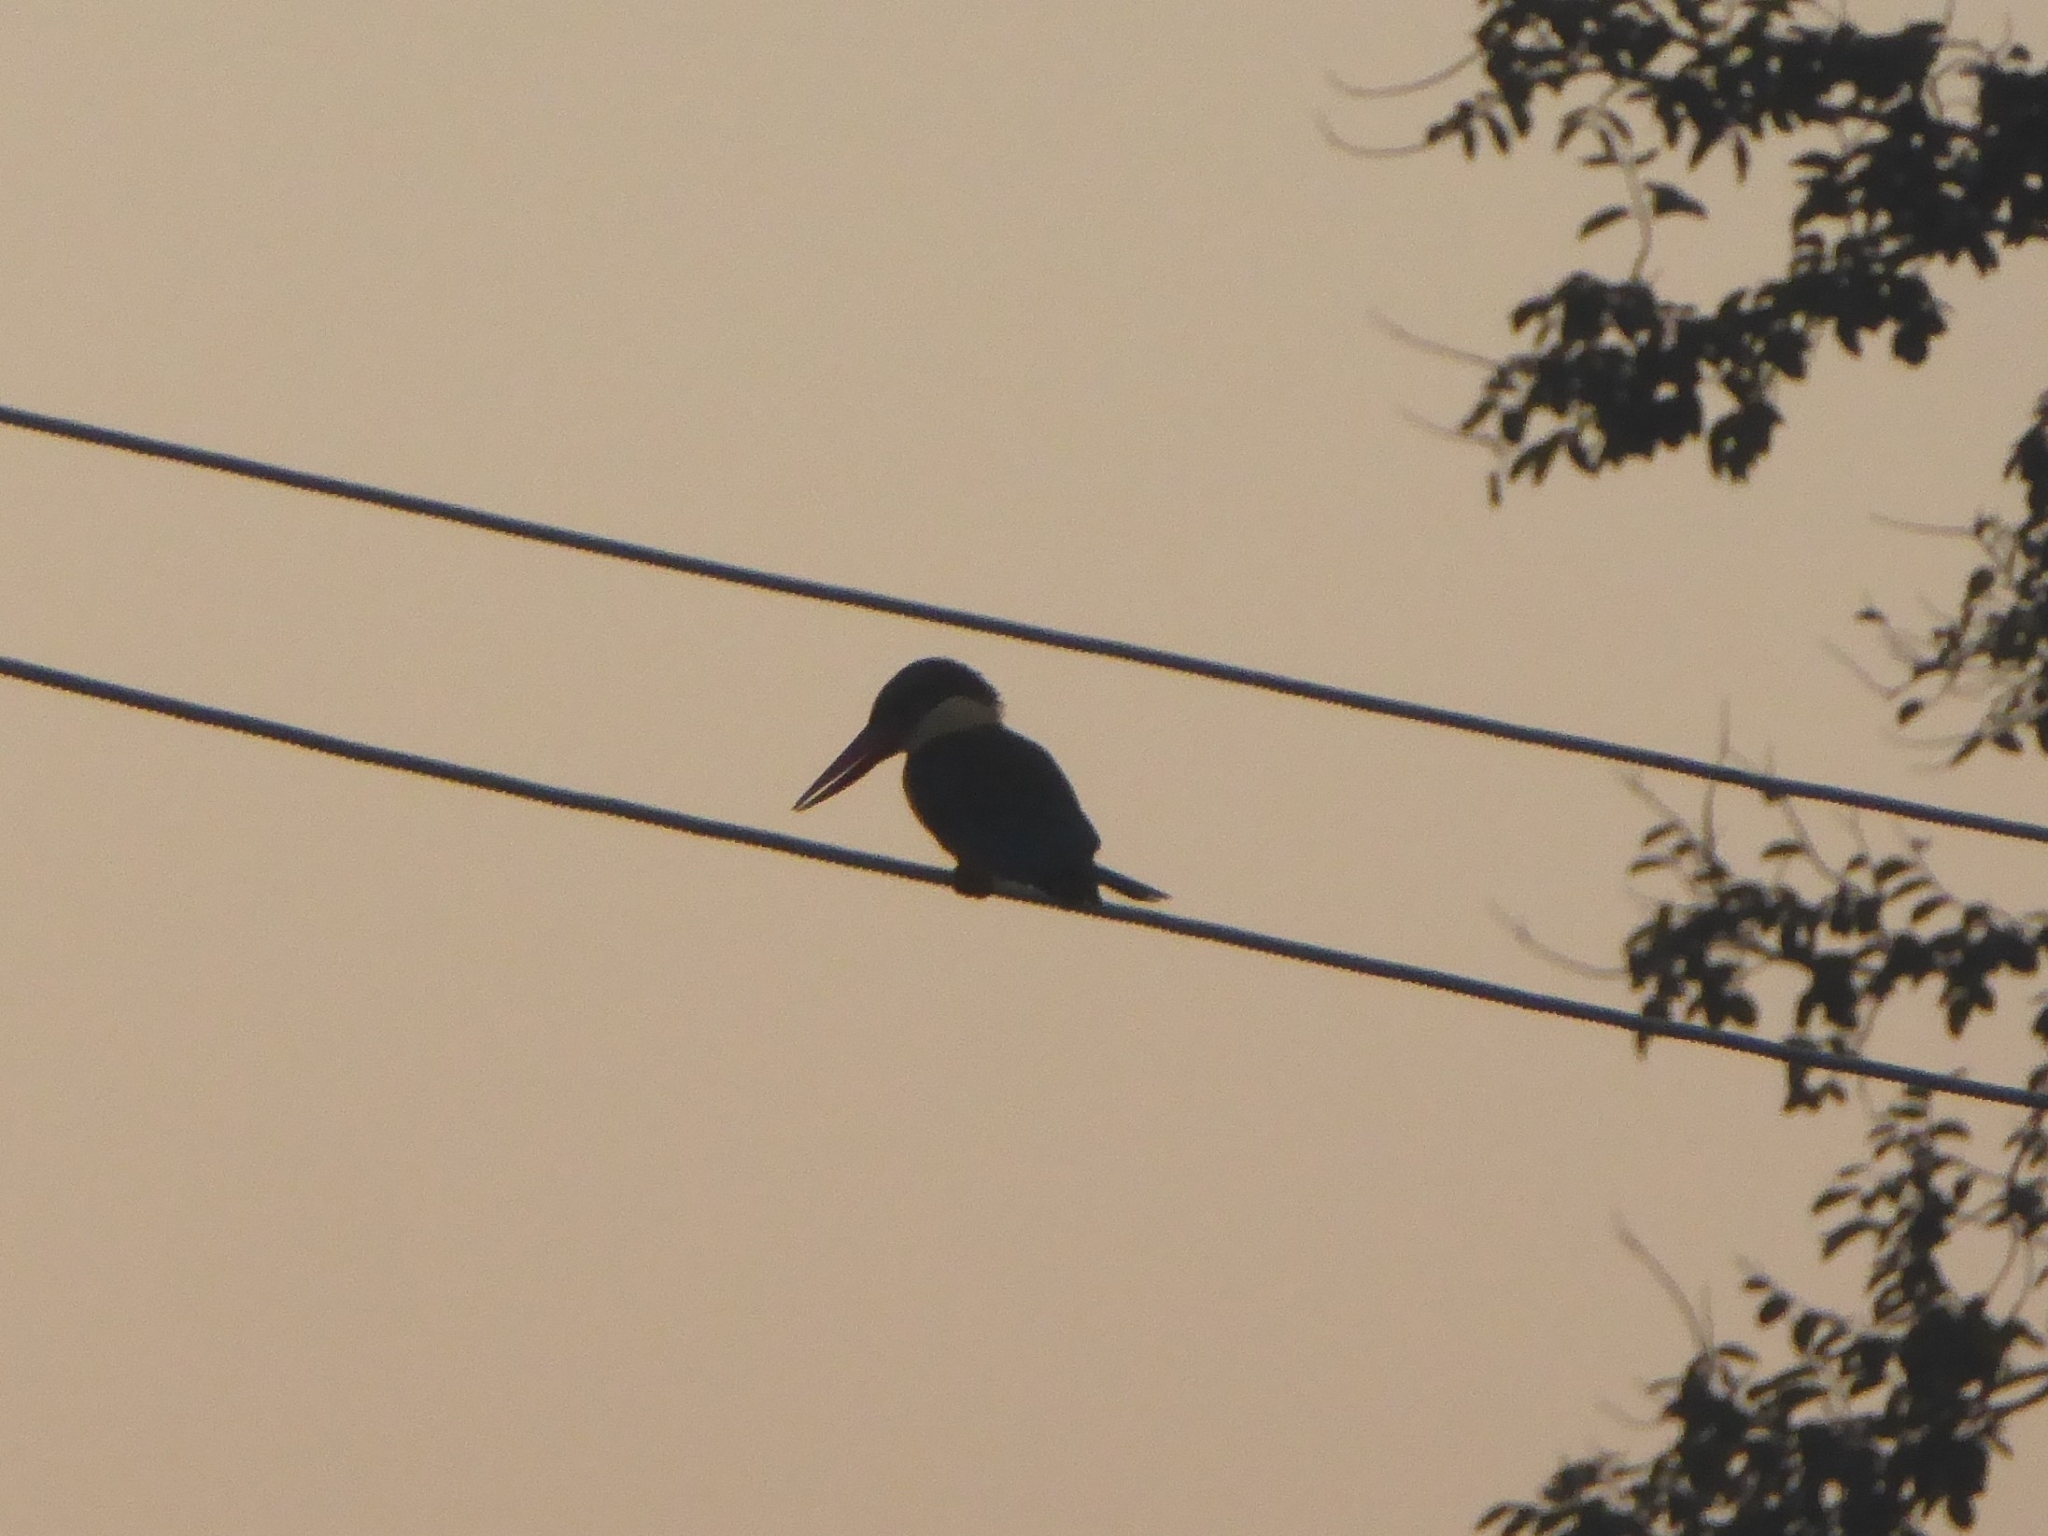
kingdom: Animalia
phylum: Chordata
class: Aves
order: Coraciiformes
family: Alcedinidae
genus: Pelargopsis
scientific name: Pelargopsis capensis
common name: Stork-billed kingfisher
